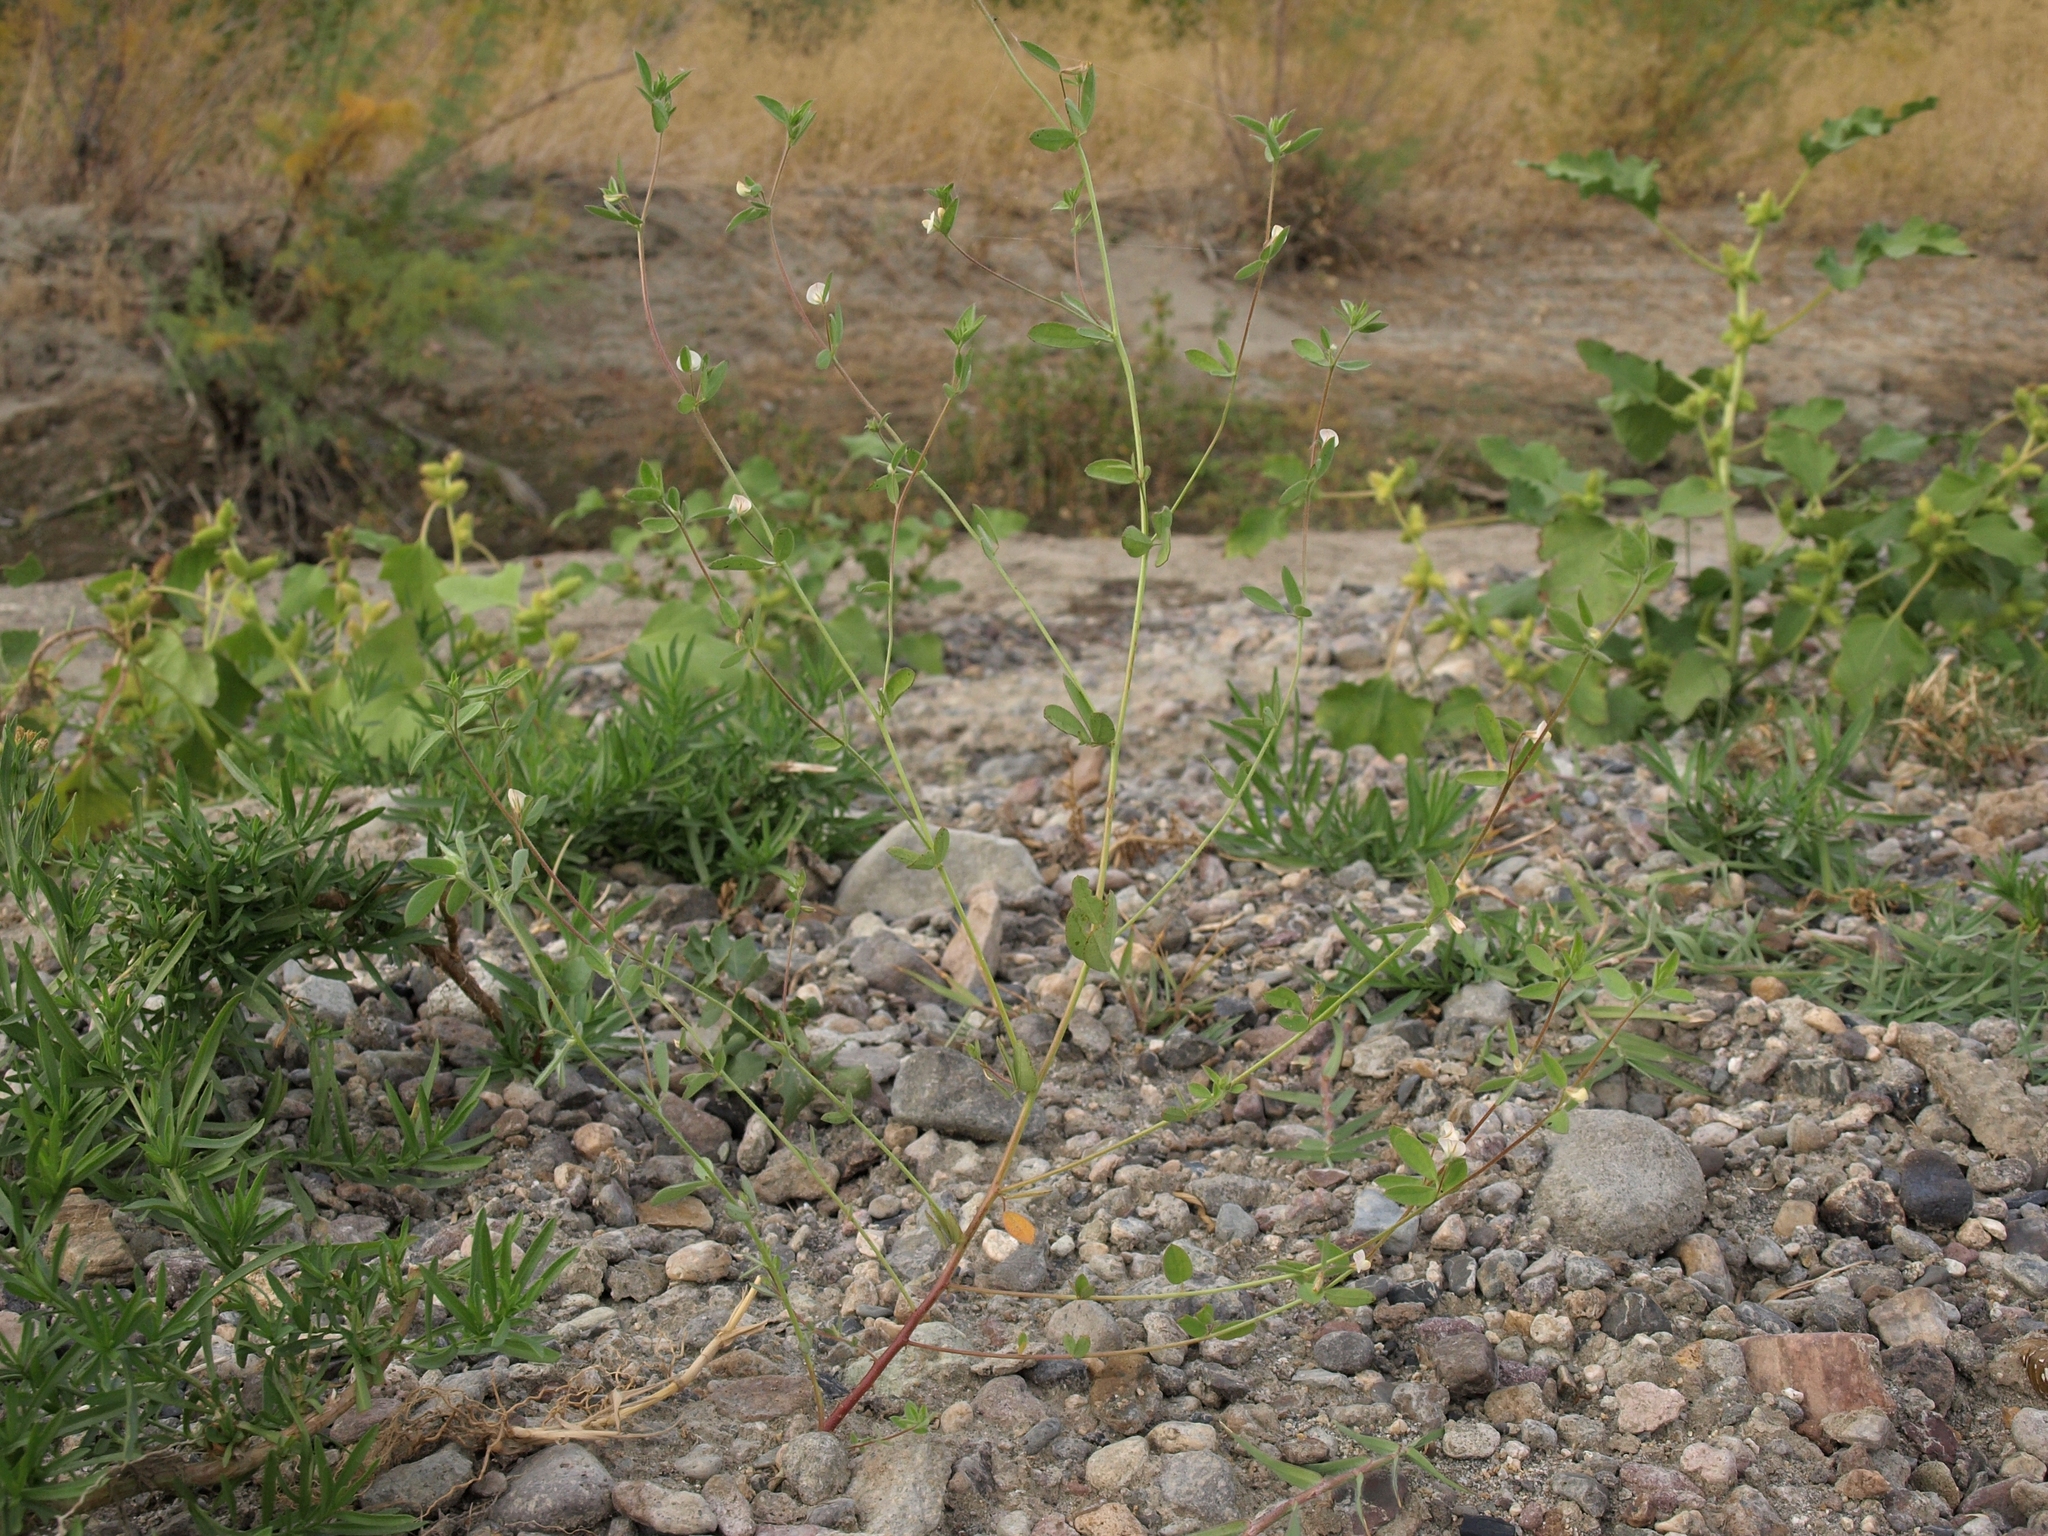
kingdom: Plantae
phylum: Tracheophyta
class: Magnoliopsida
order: Fabales
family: Fabaceae
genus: Acmispon
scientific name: Acmispon americanus
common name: American bird's-foot trefoil
